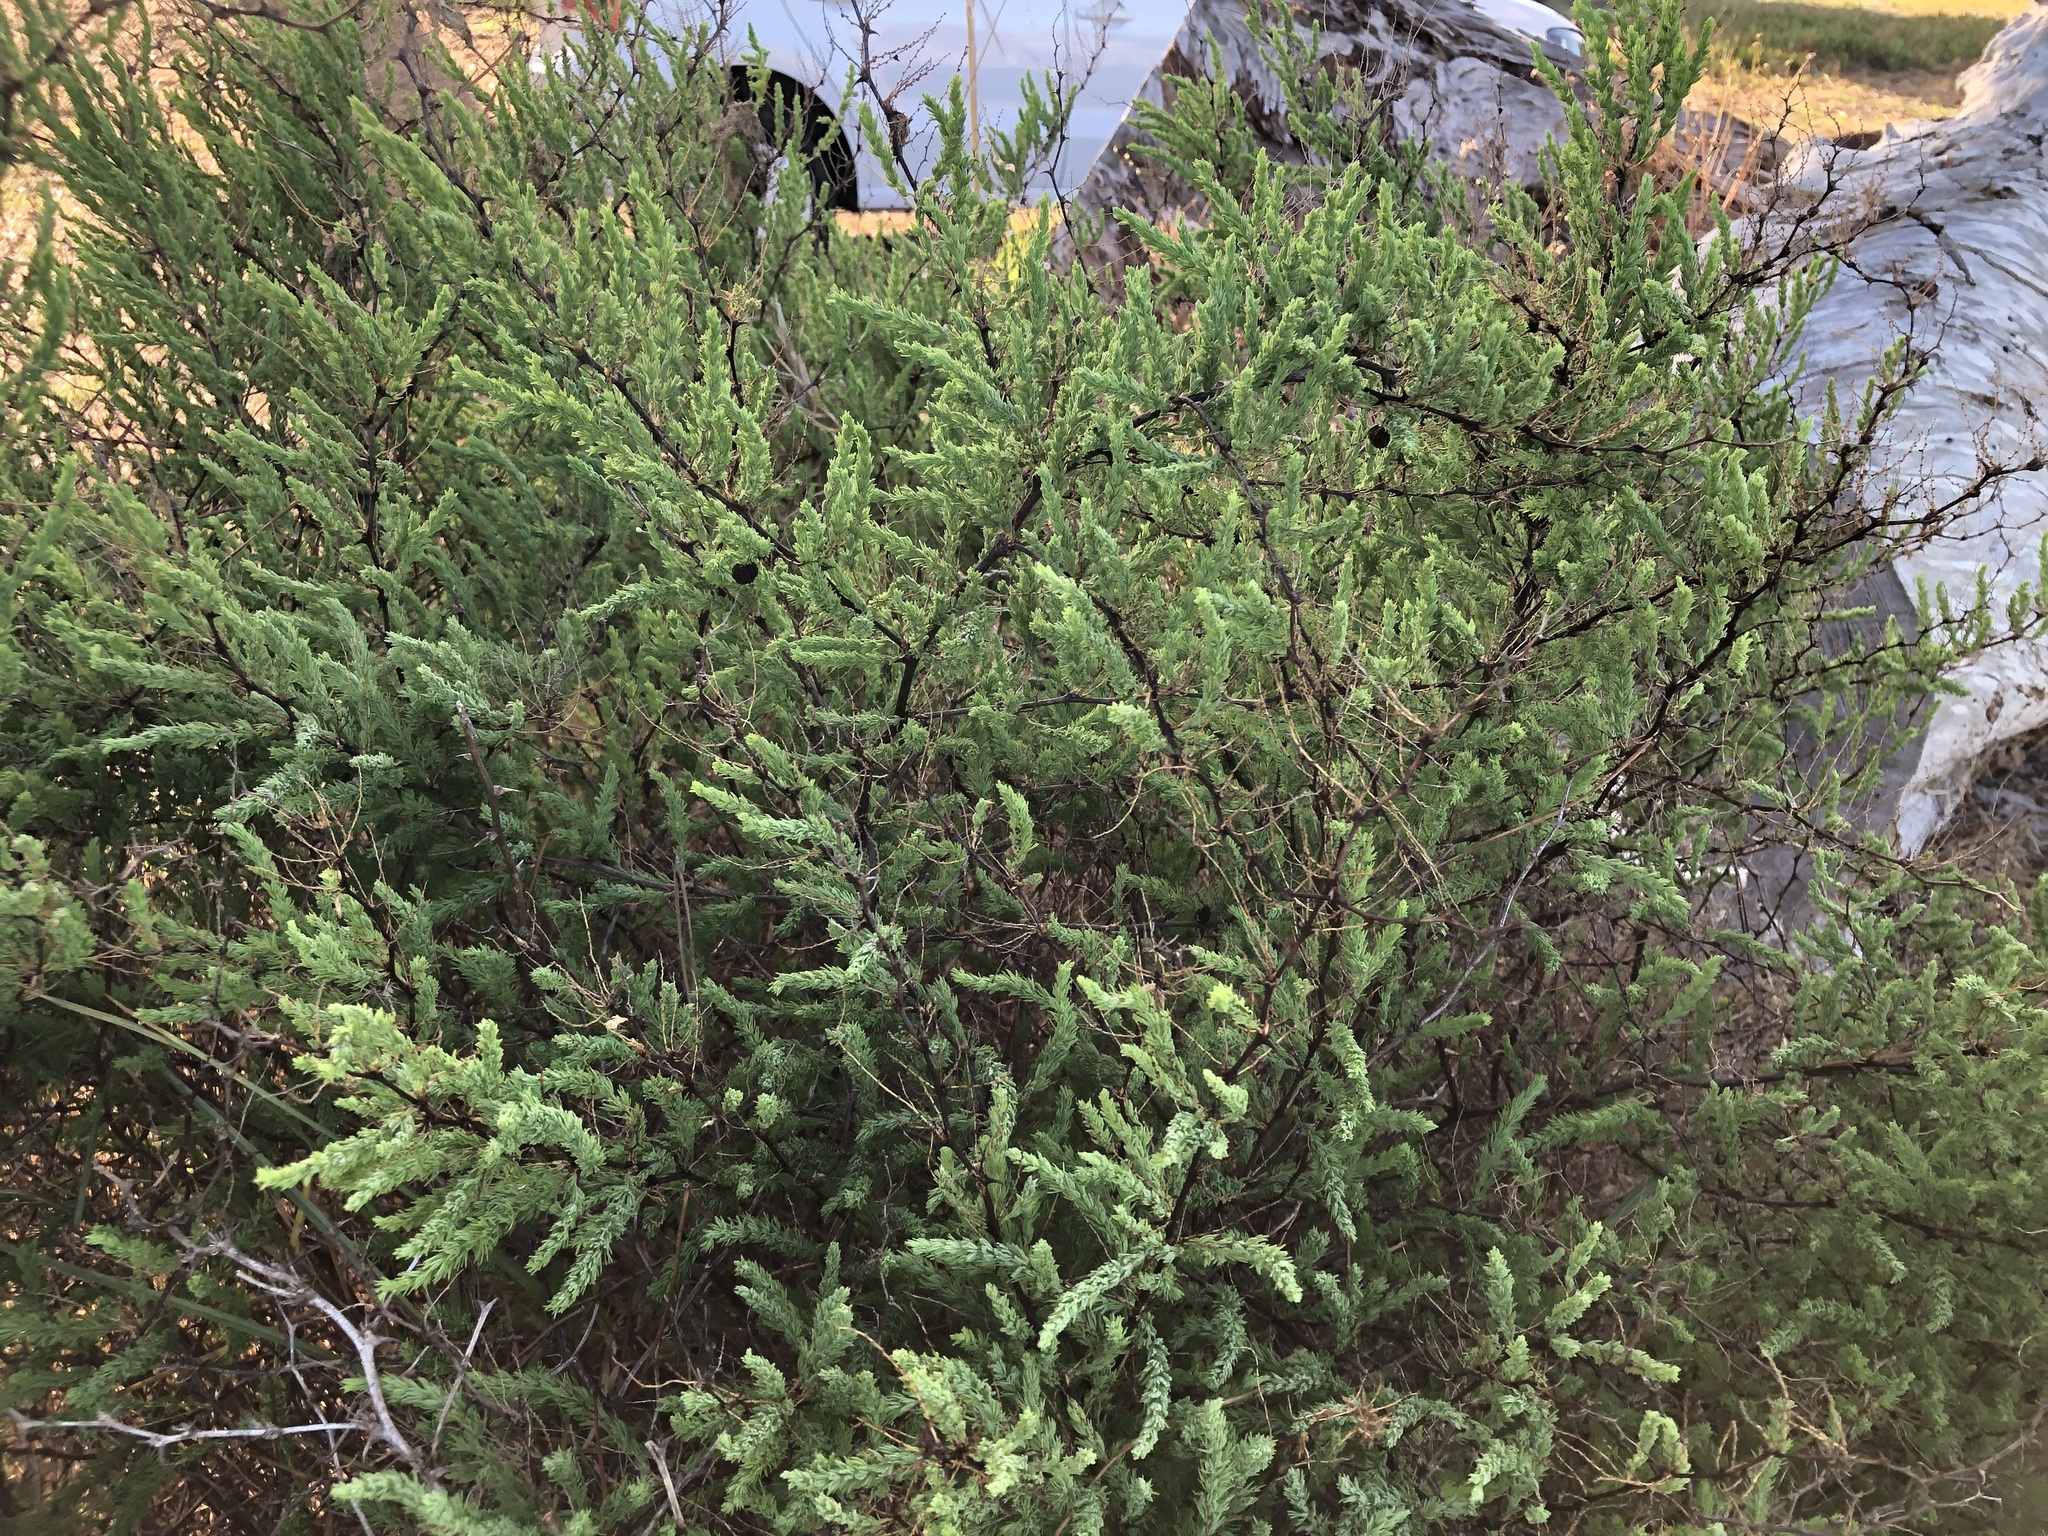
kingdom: Plantae
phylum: Tracheophyta
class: Liliopsida
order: Asparagales
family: Asparagaceae
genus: Asparagus
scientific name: Asparagus rubicundus
